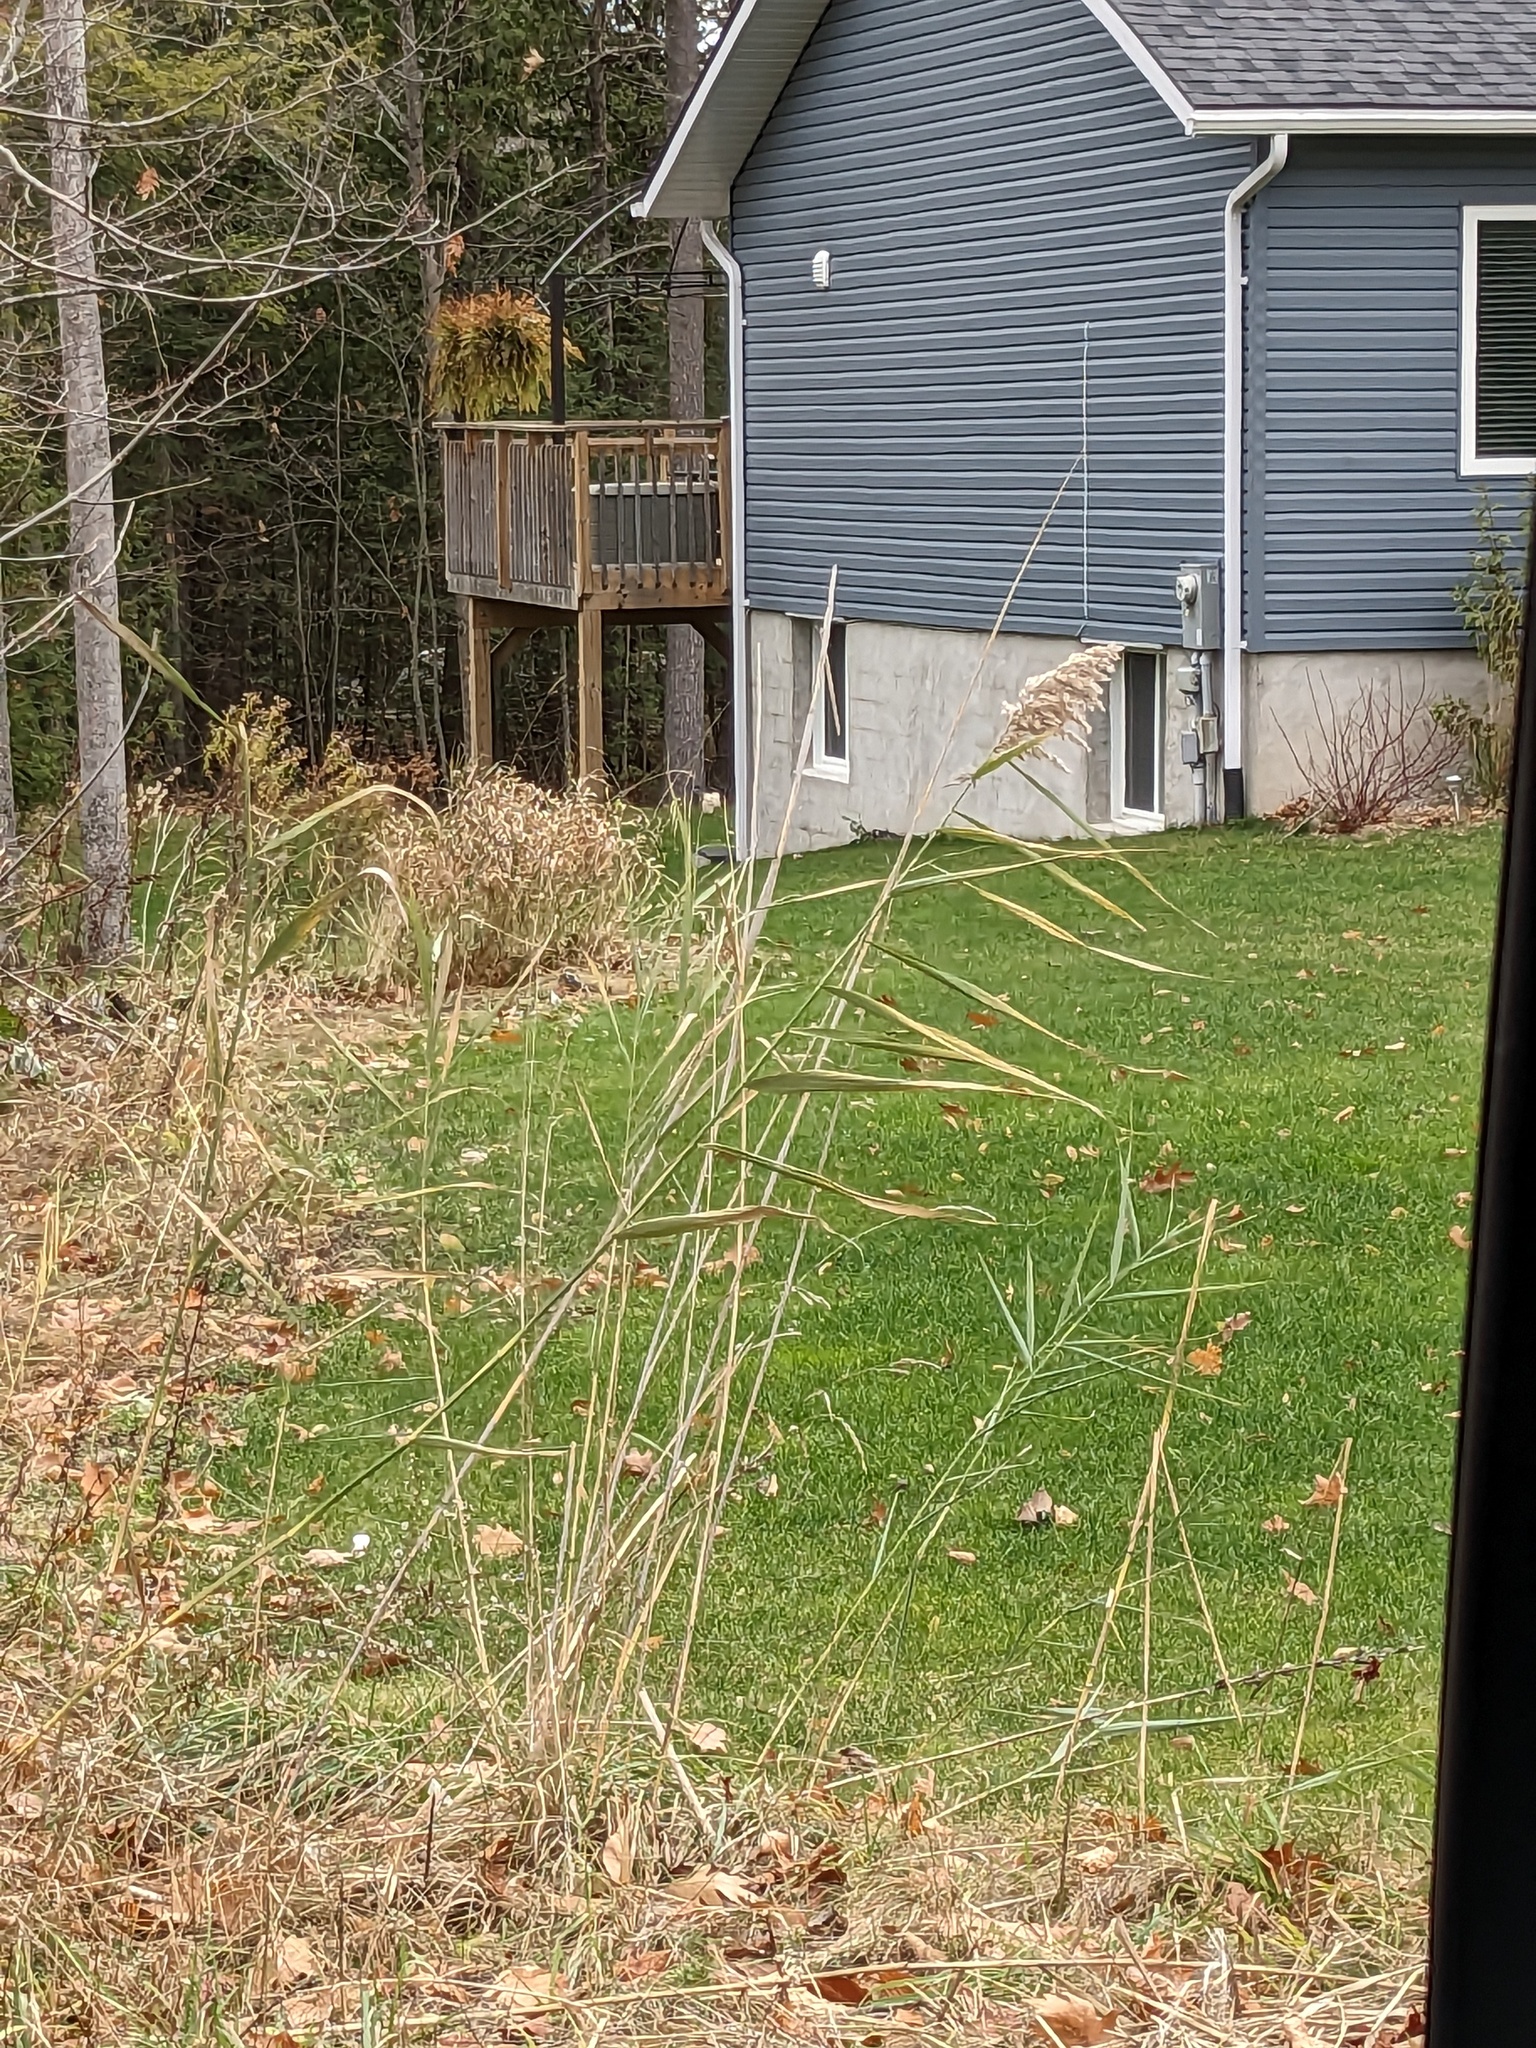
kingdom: Plantae
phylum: Tracheophyta
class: Liliopsida
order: Poales
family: Poaceae
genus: Phragmites
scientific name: Phragmites australis
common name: Common reed
